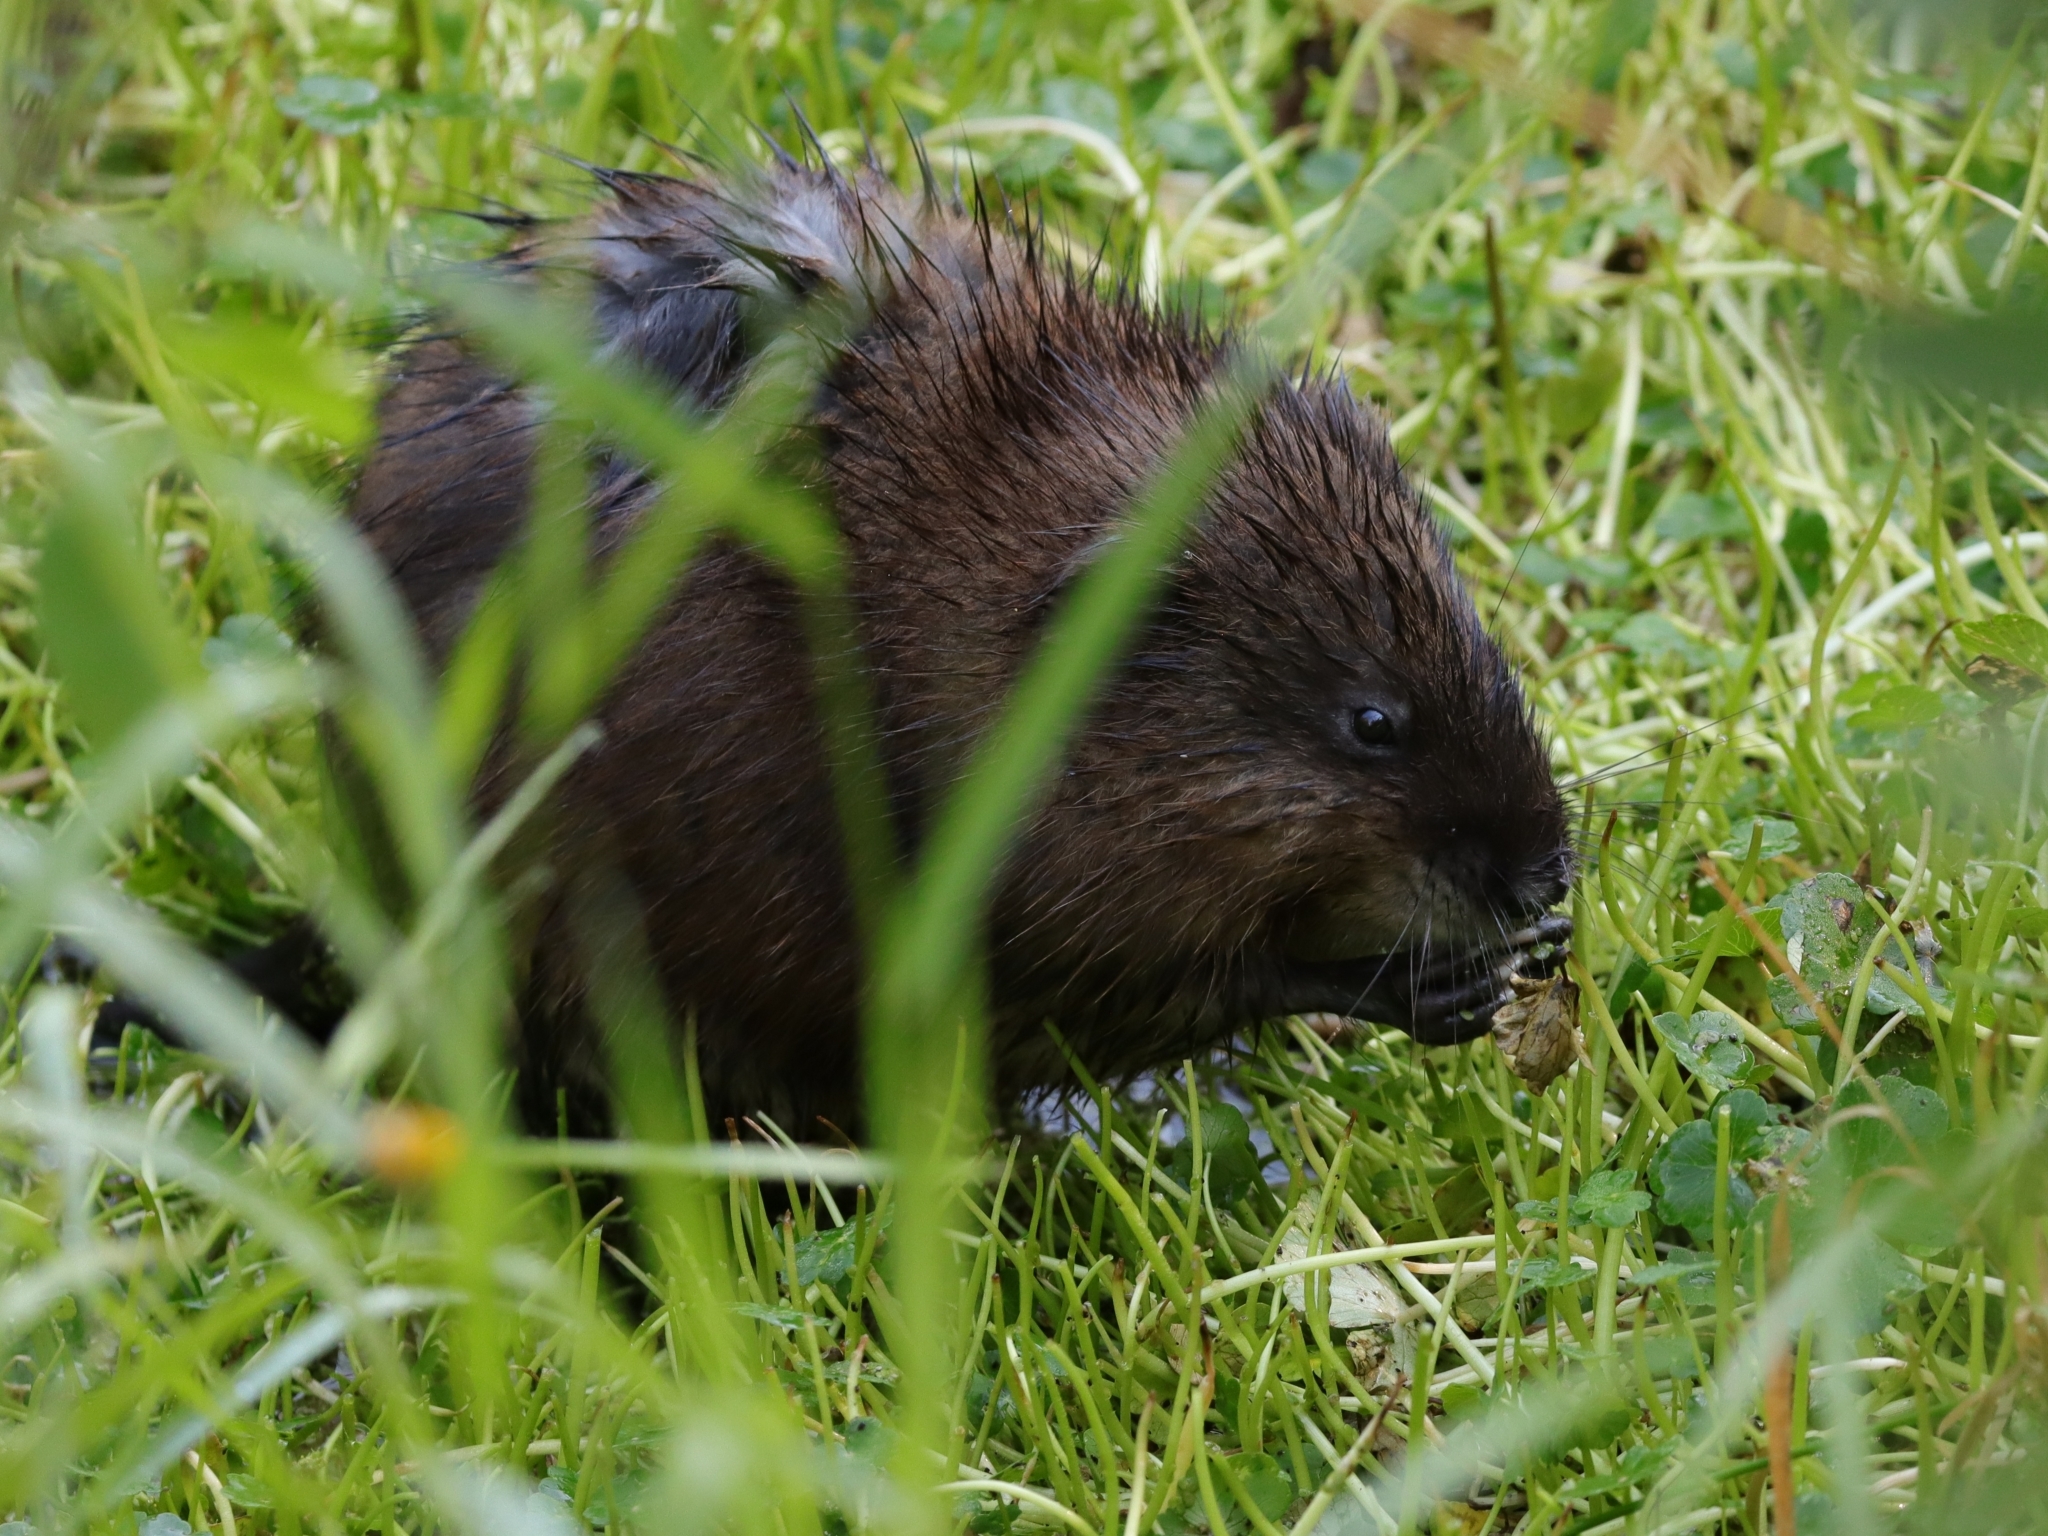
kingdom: Animalia
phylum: Chordata
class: Mammalia
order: Rodentia
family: Cricetidae
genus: Ondatra
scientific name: Ondatra zibethicus
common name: Muskrat
